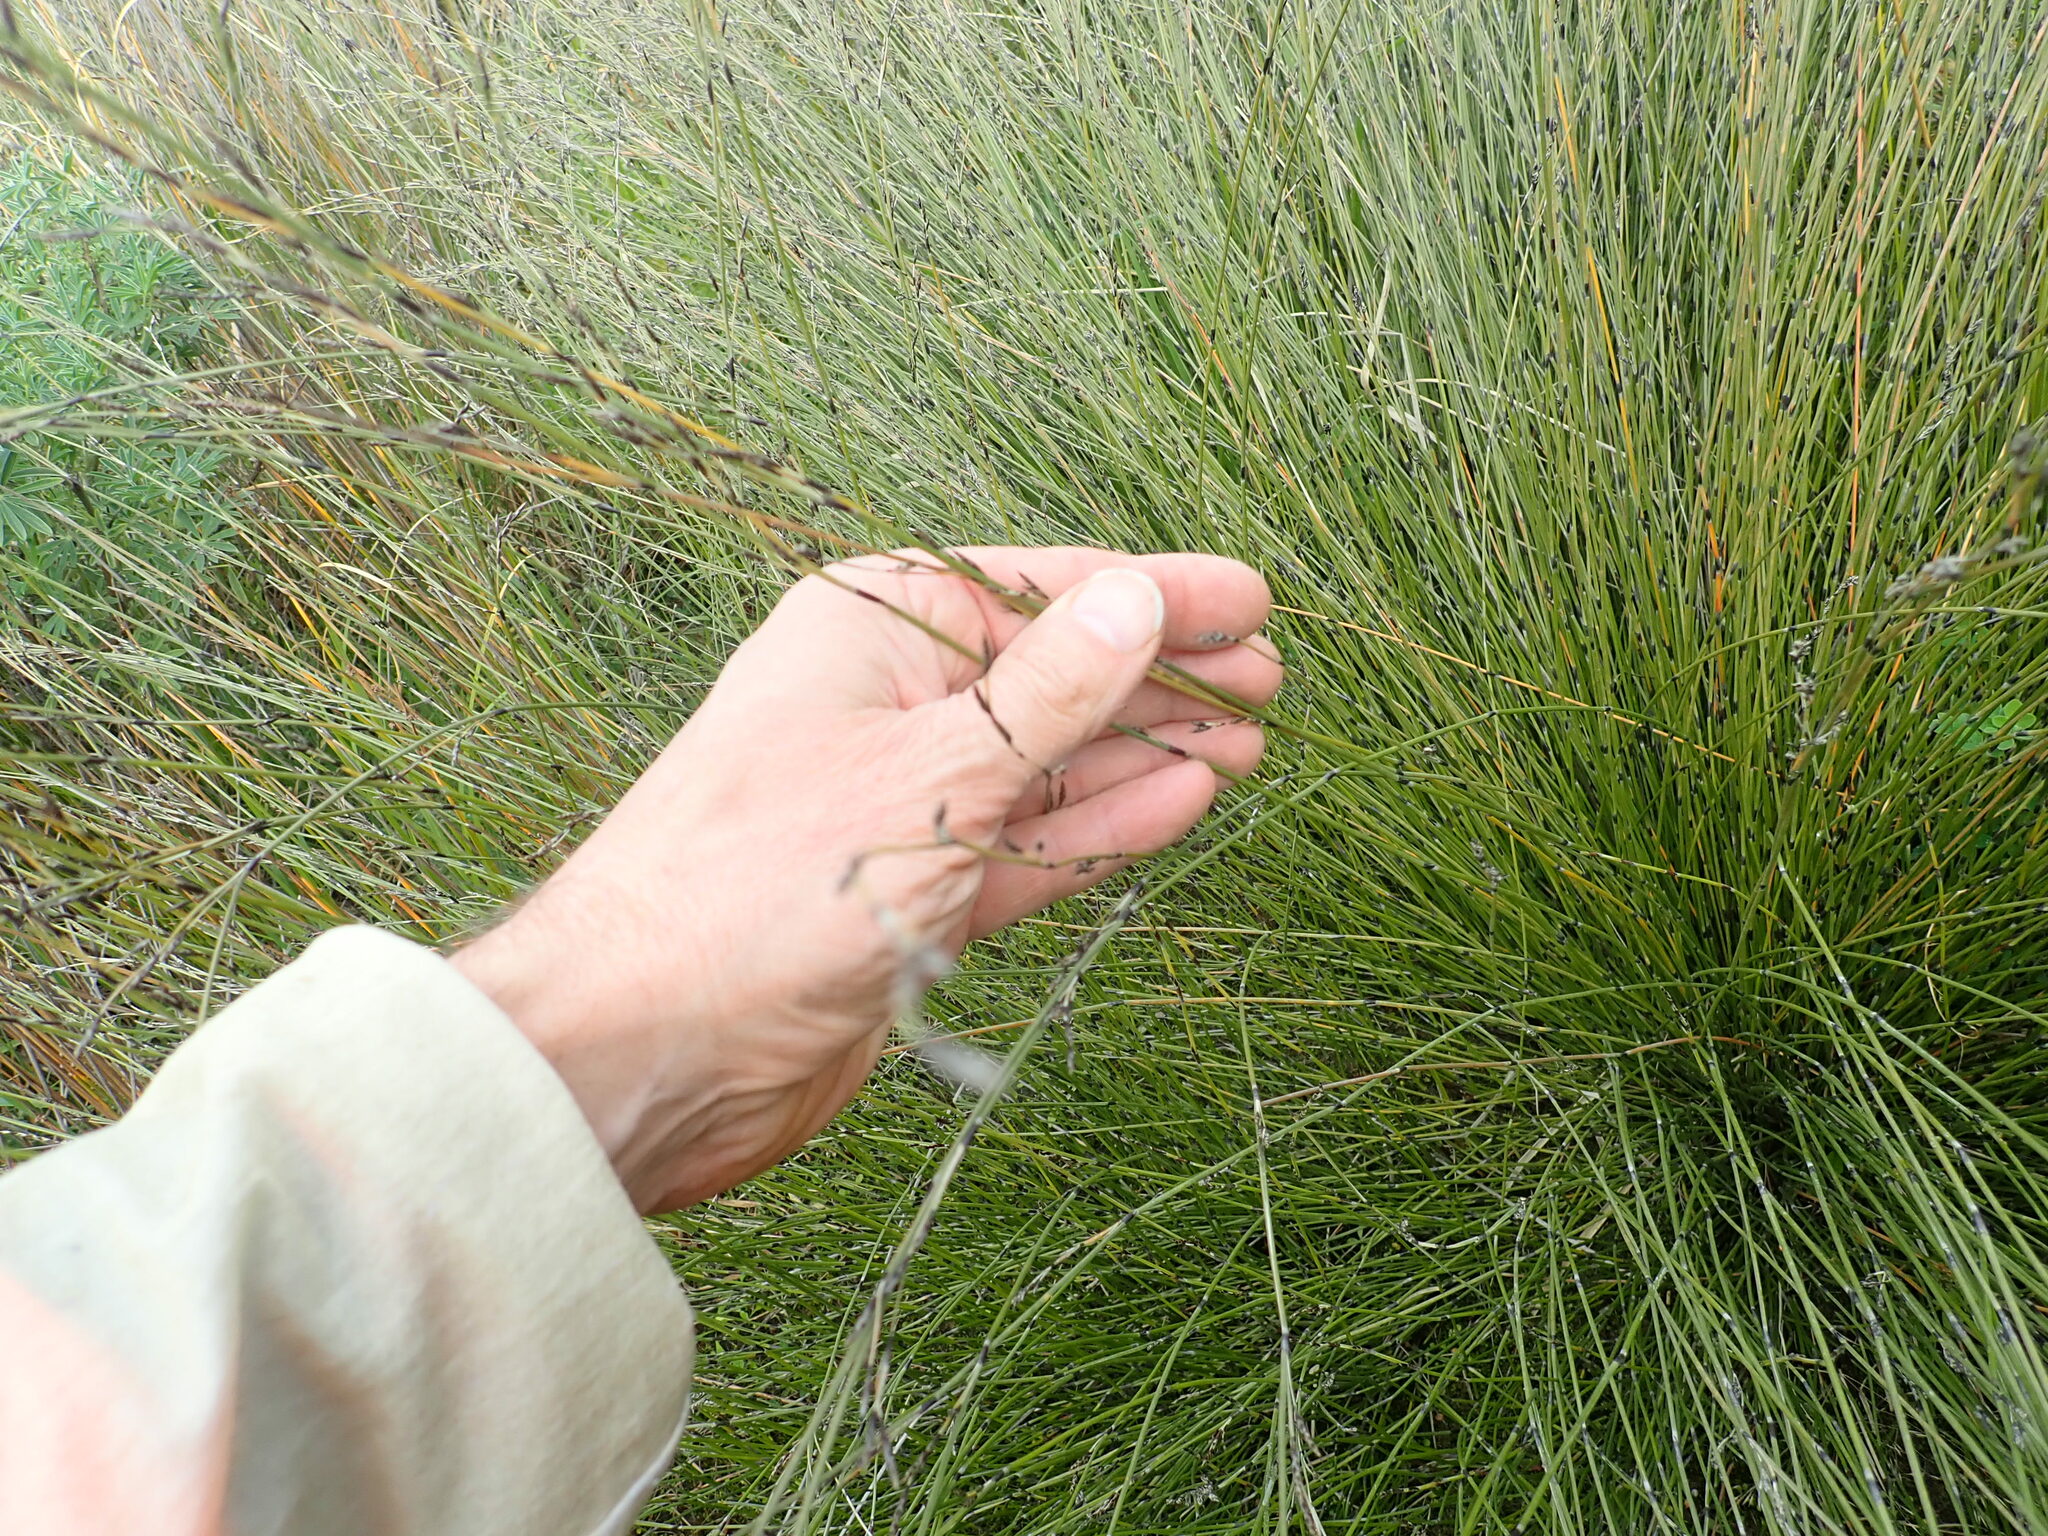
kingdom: Plantae
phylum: Tracheophyta
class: Liliopsida
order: Poales
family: Restionaceae
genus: Apodasmia
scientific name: Apodasmia similis
